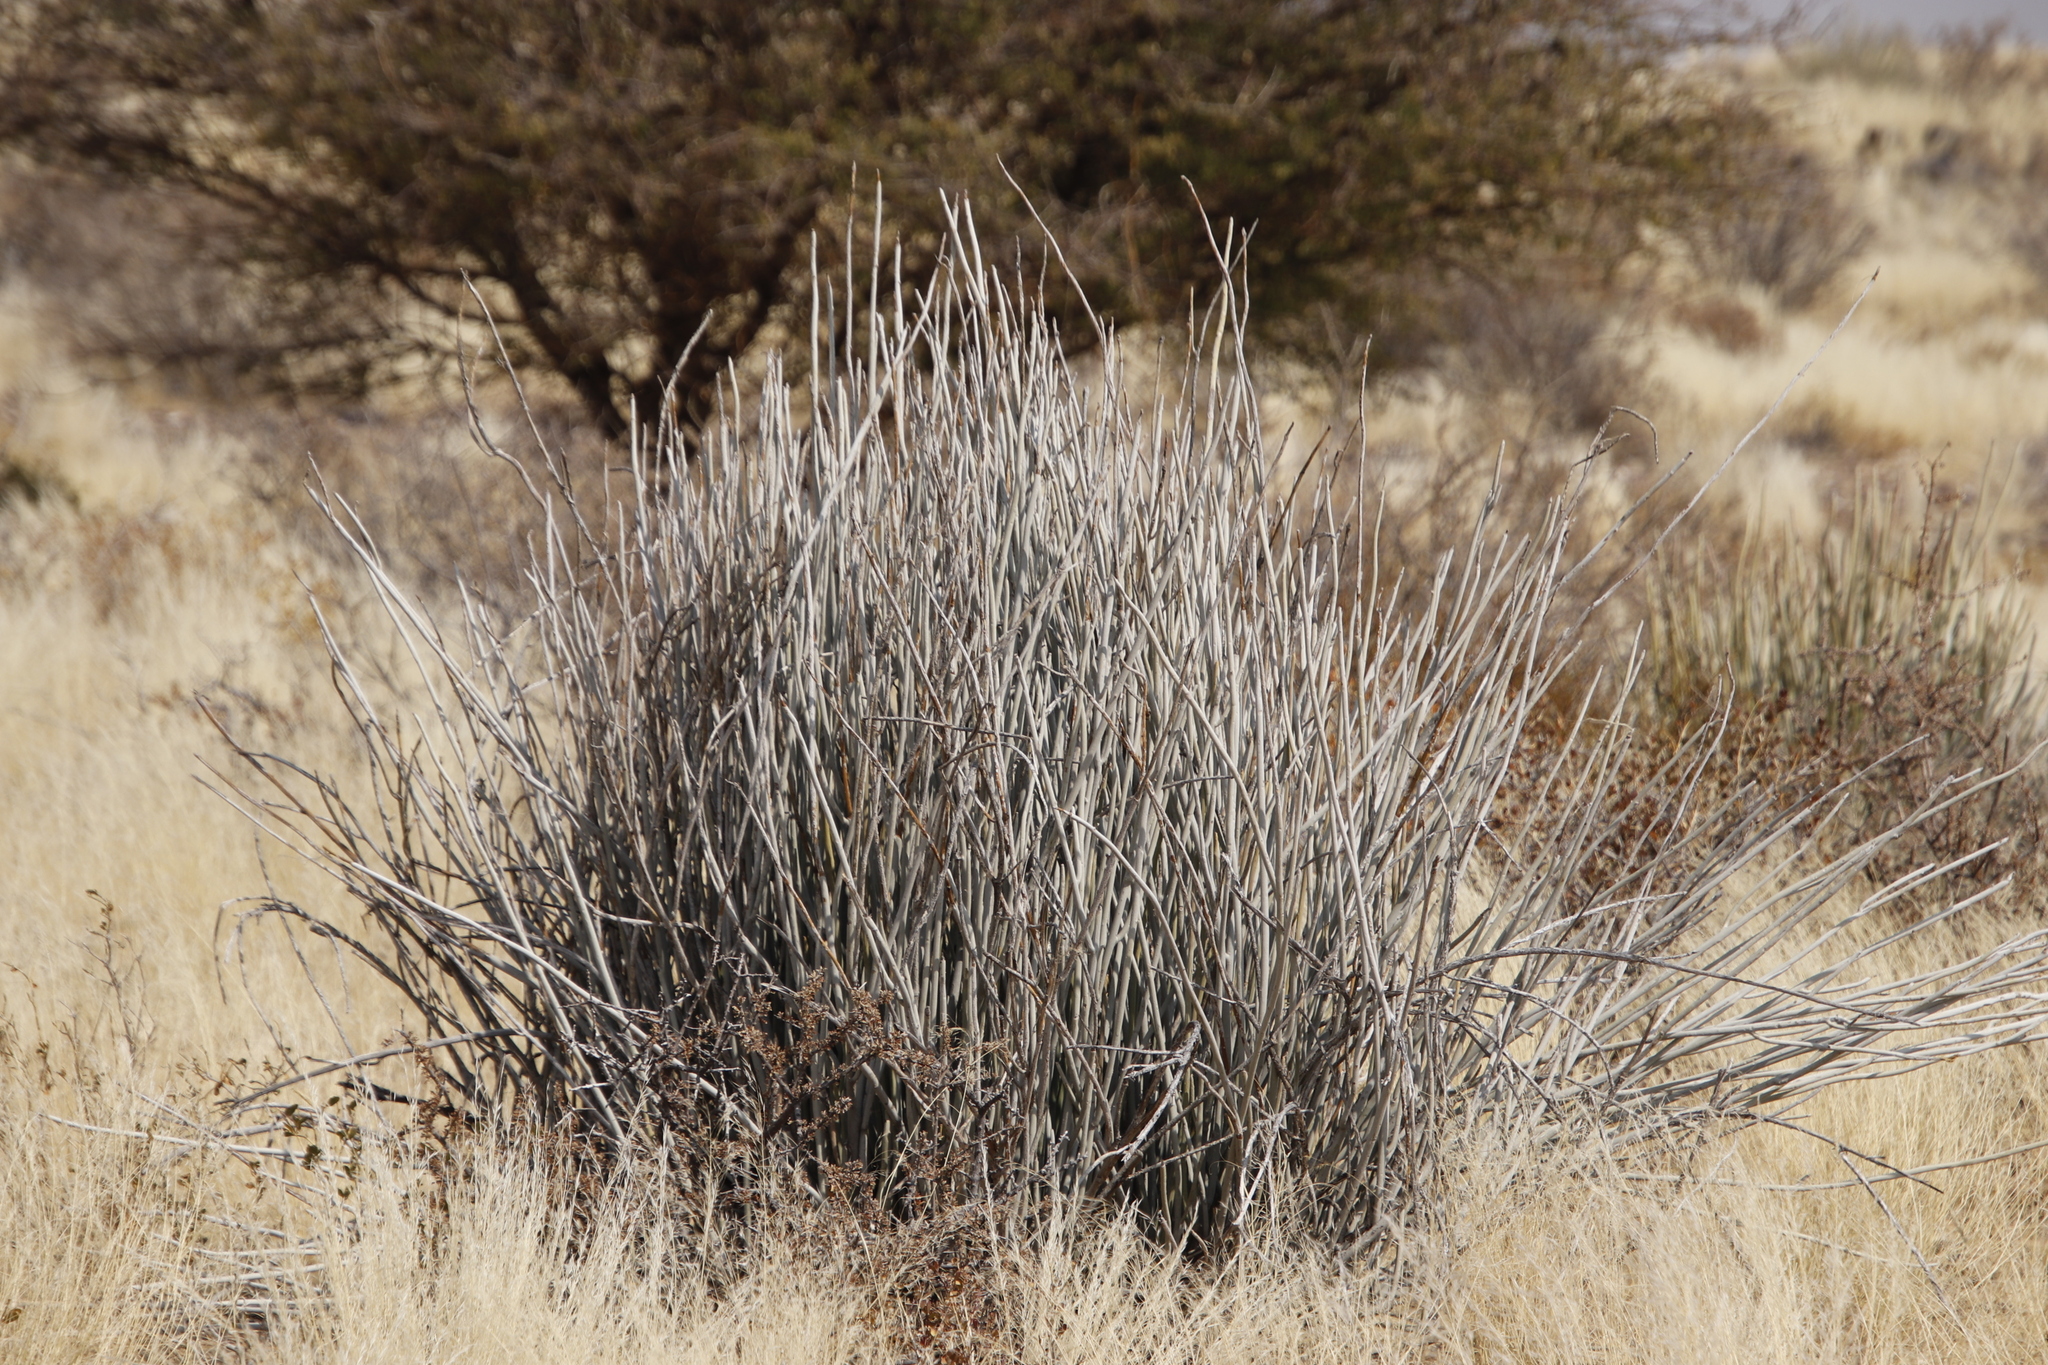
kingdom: Plantae
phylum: Tracheophyta
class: Magnoliopsida
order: Malpighiales
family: Euphorbiaceae
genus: Euphorbia
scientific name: Euphorbia gregaria
